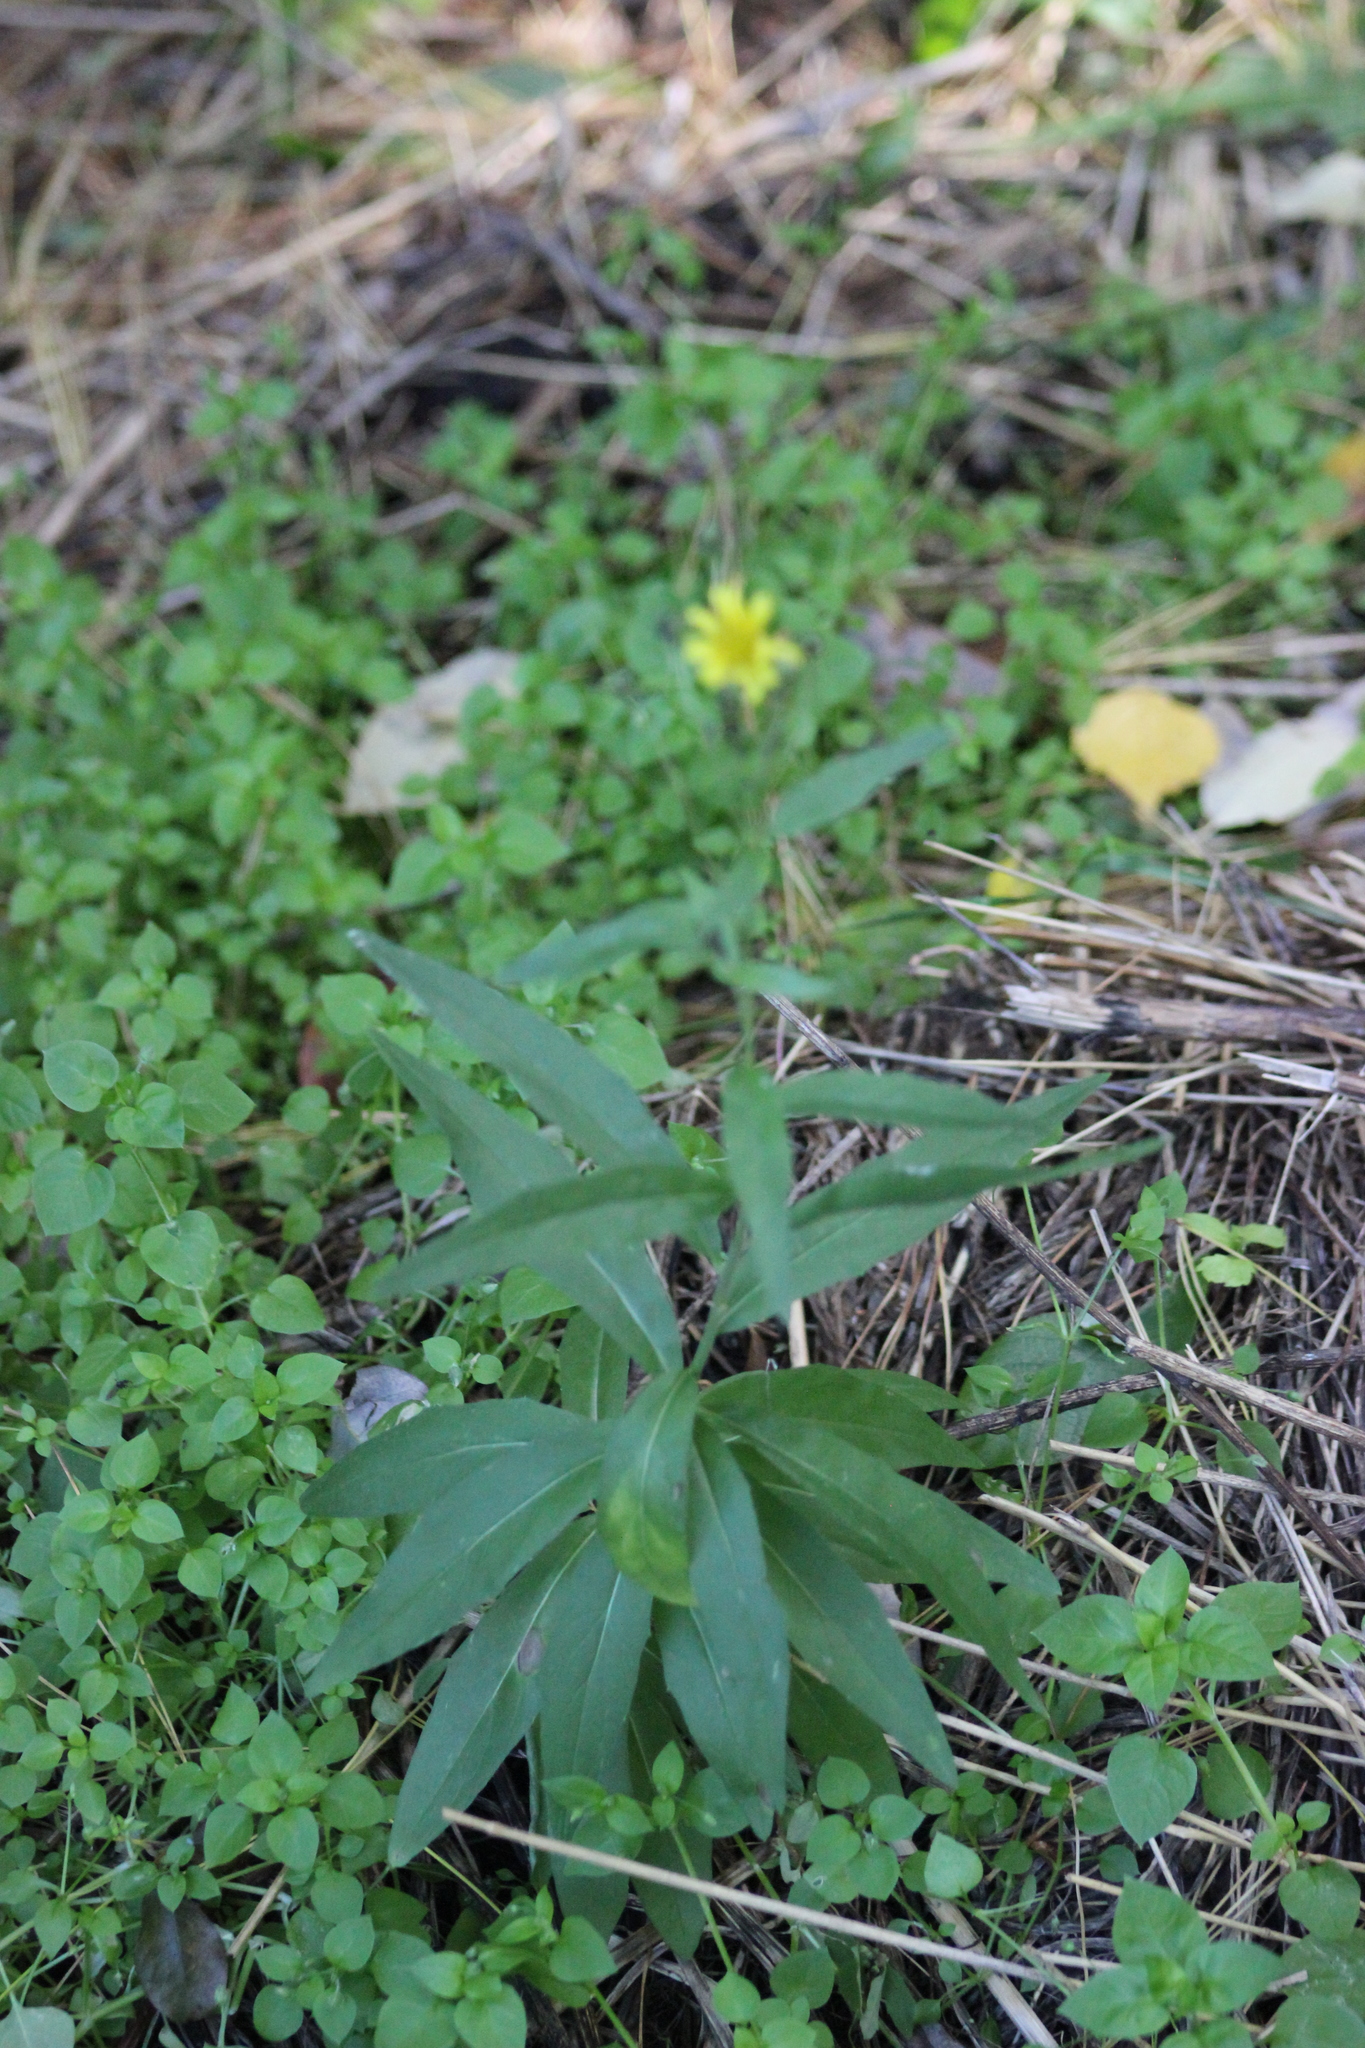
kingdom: Plantae
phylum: Tracheophyta
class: Magnoliopsida
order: Asterales
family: Asteraceae
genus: Hieracium
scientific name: Hieracium umbellatum
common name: Northern hawkweed
